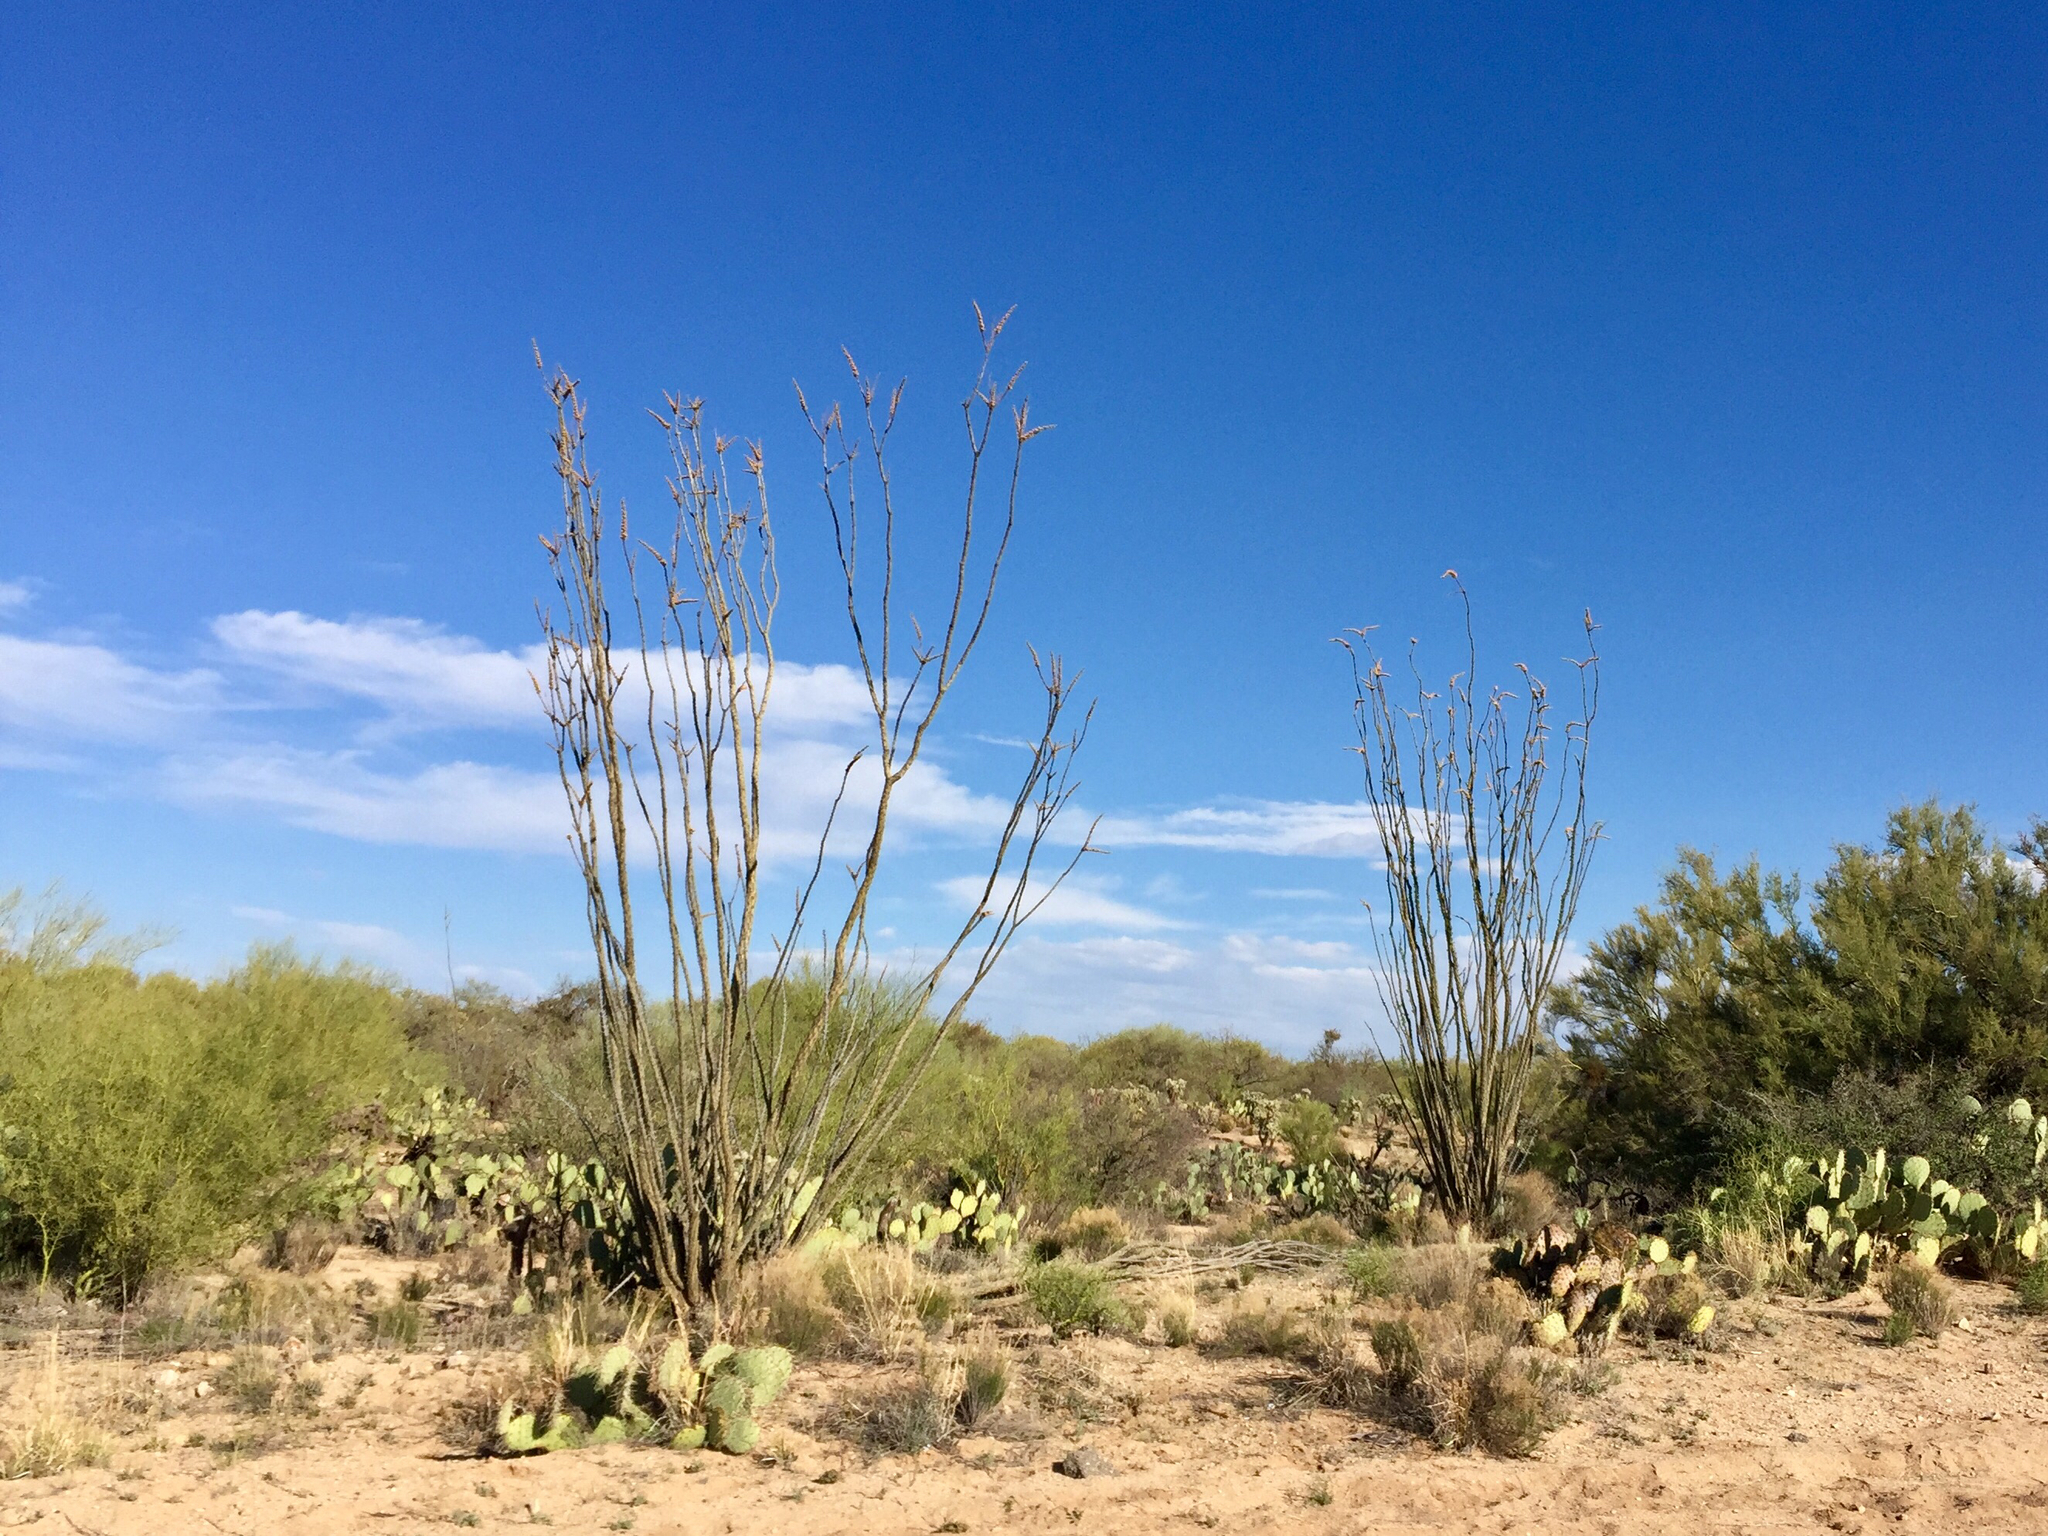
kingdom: Plantae
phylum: Tracheophyta
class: Magnoliopsida
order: Ericales
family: Fouquieriaceae
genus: Fouquieria
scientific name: Fouquieria splendens
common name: Vine-cactus
